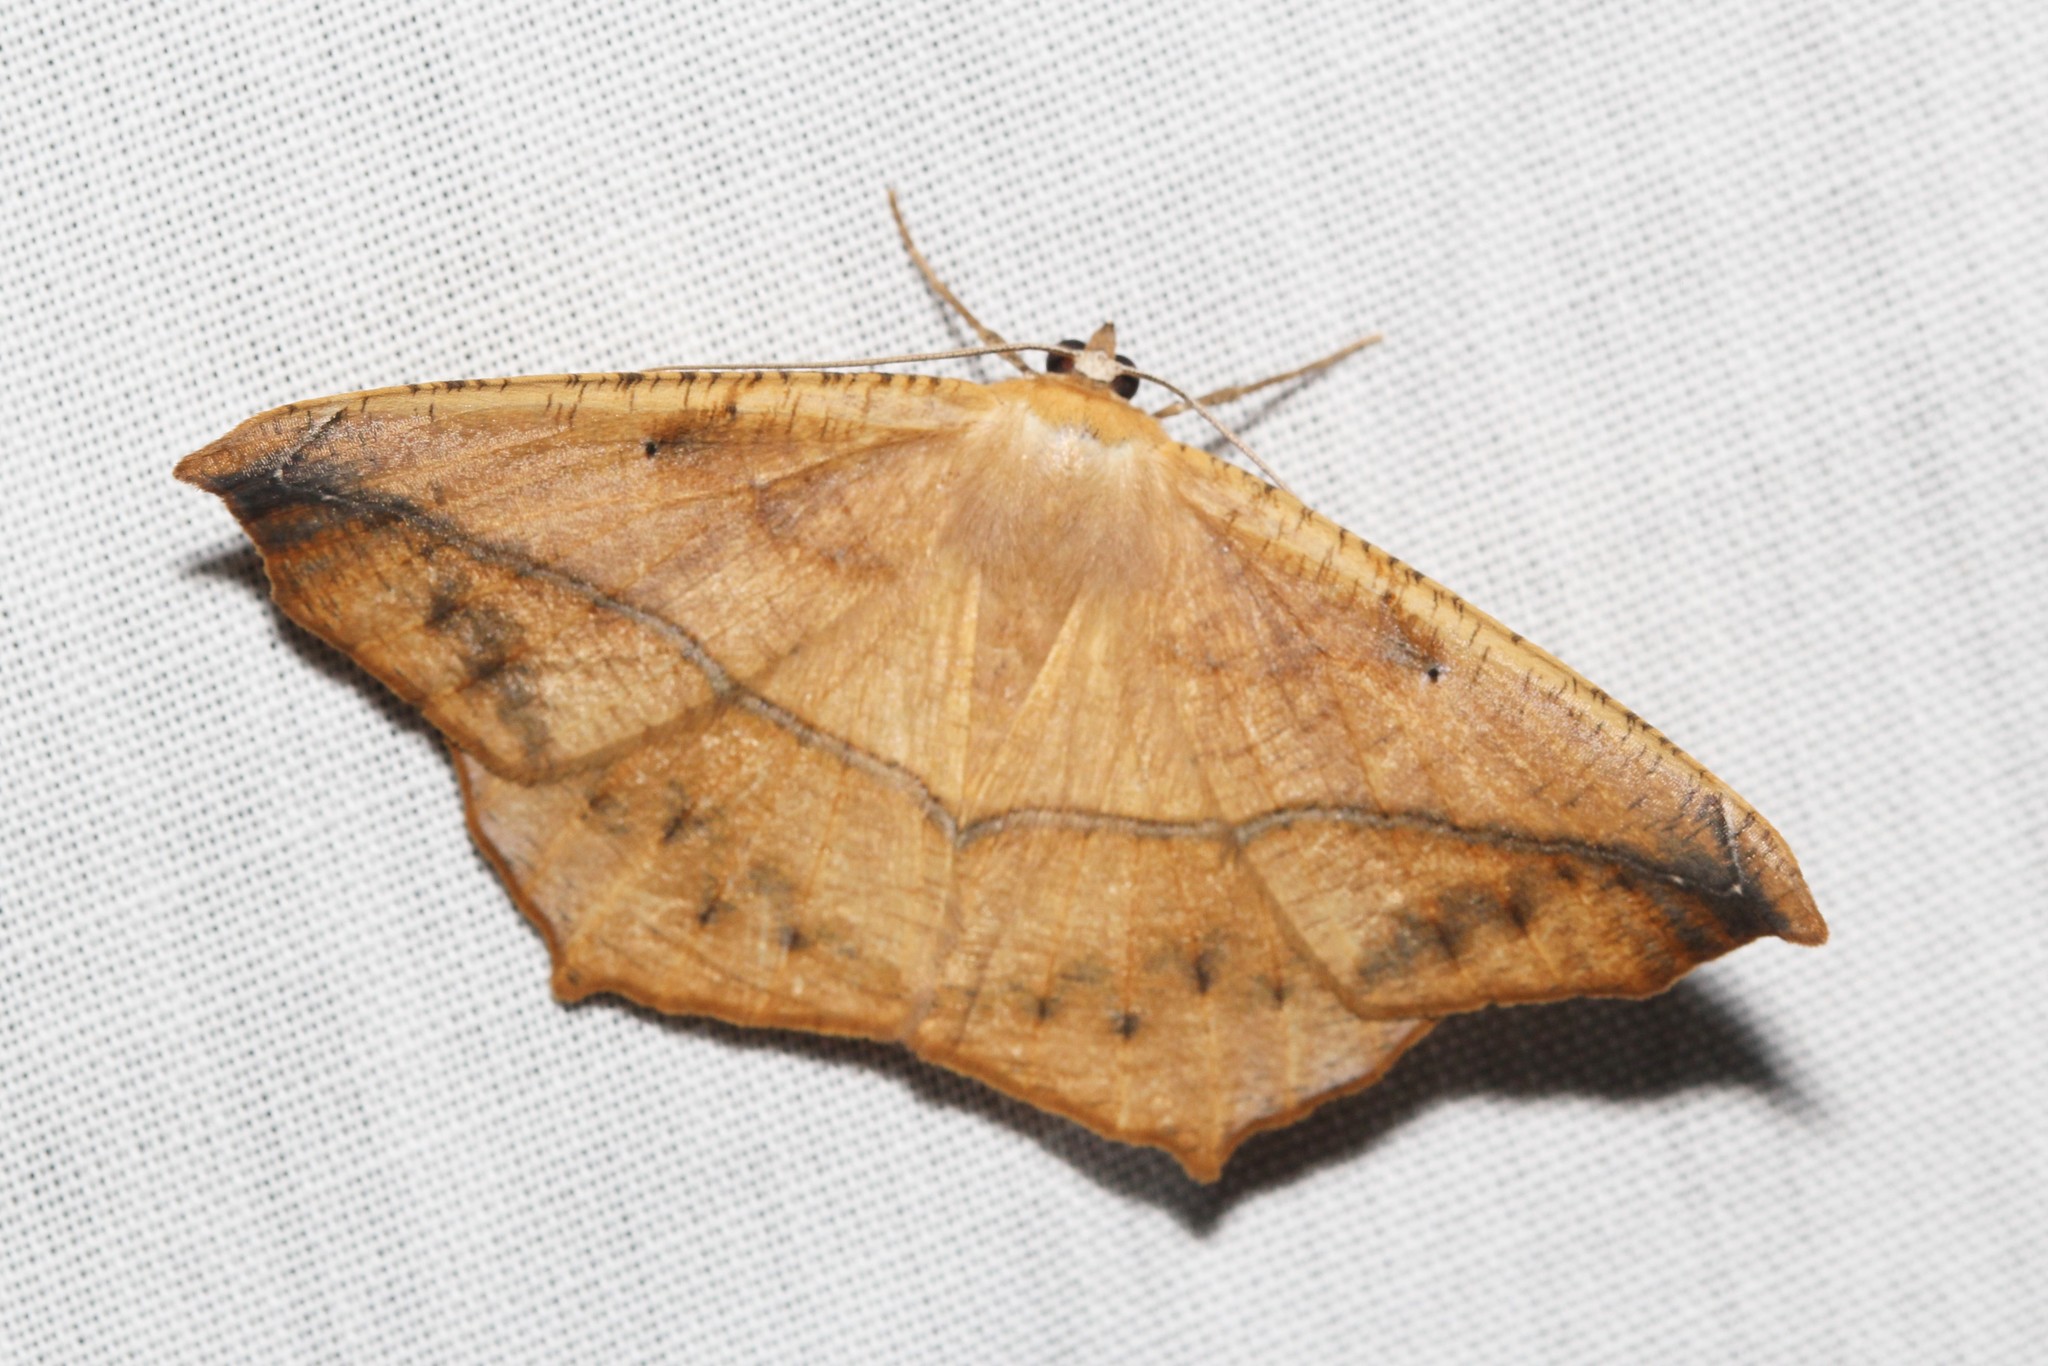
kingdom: Animalia
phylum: Arthropoda
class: Insecta
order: Lepidoptera
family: Geometridae
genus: Prochoerodes
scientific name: Prochoerodes lineola
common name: Large maple spanworm
